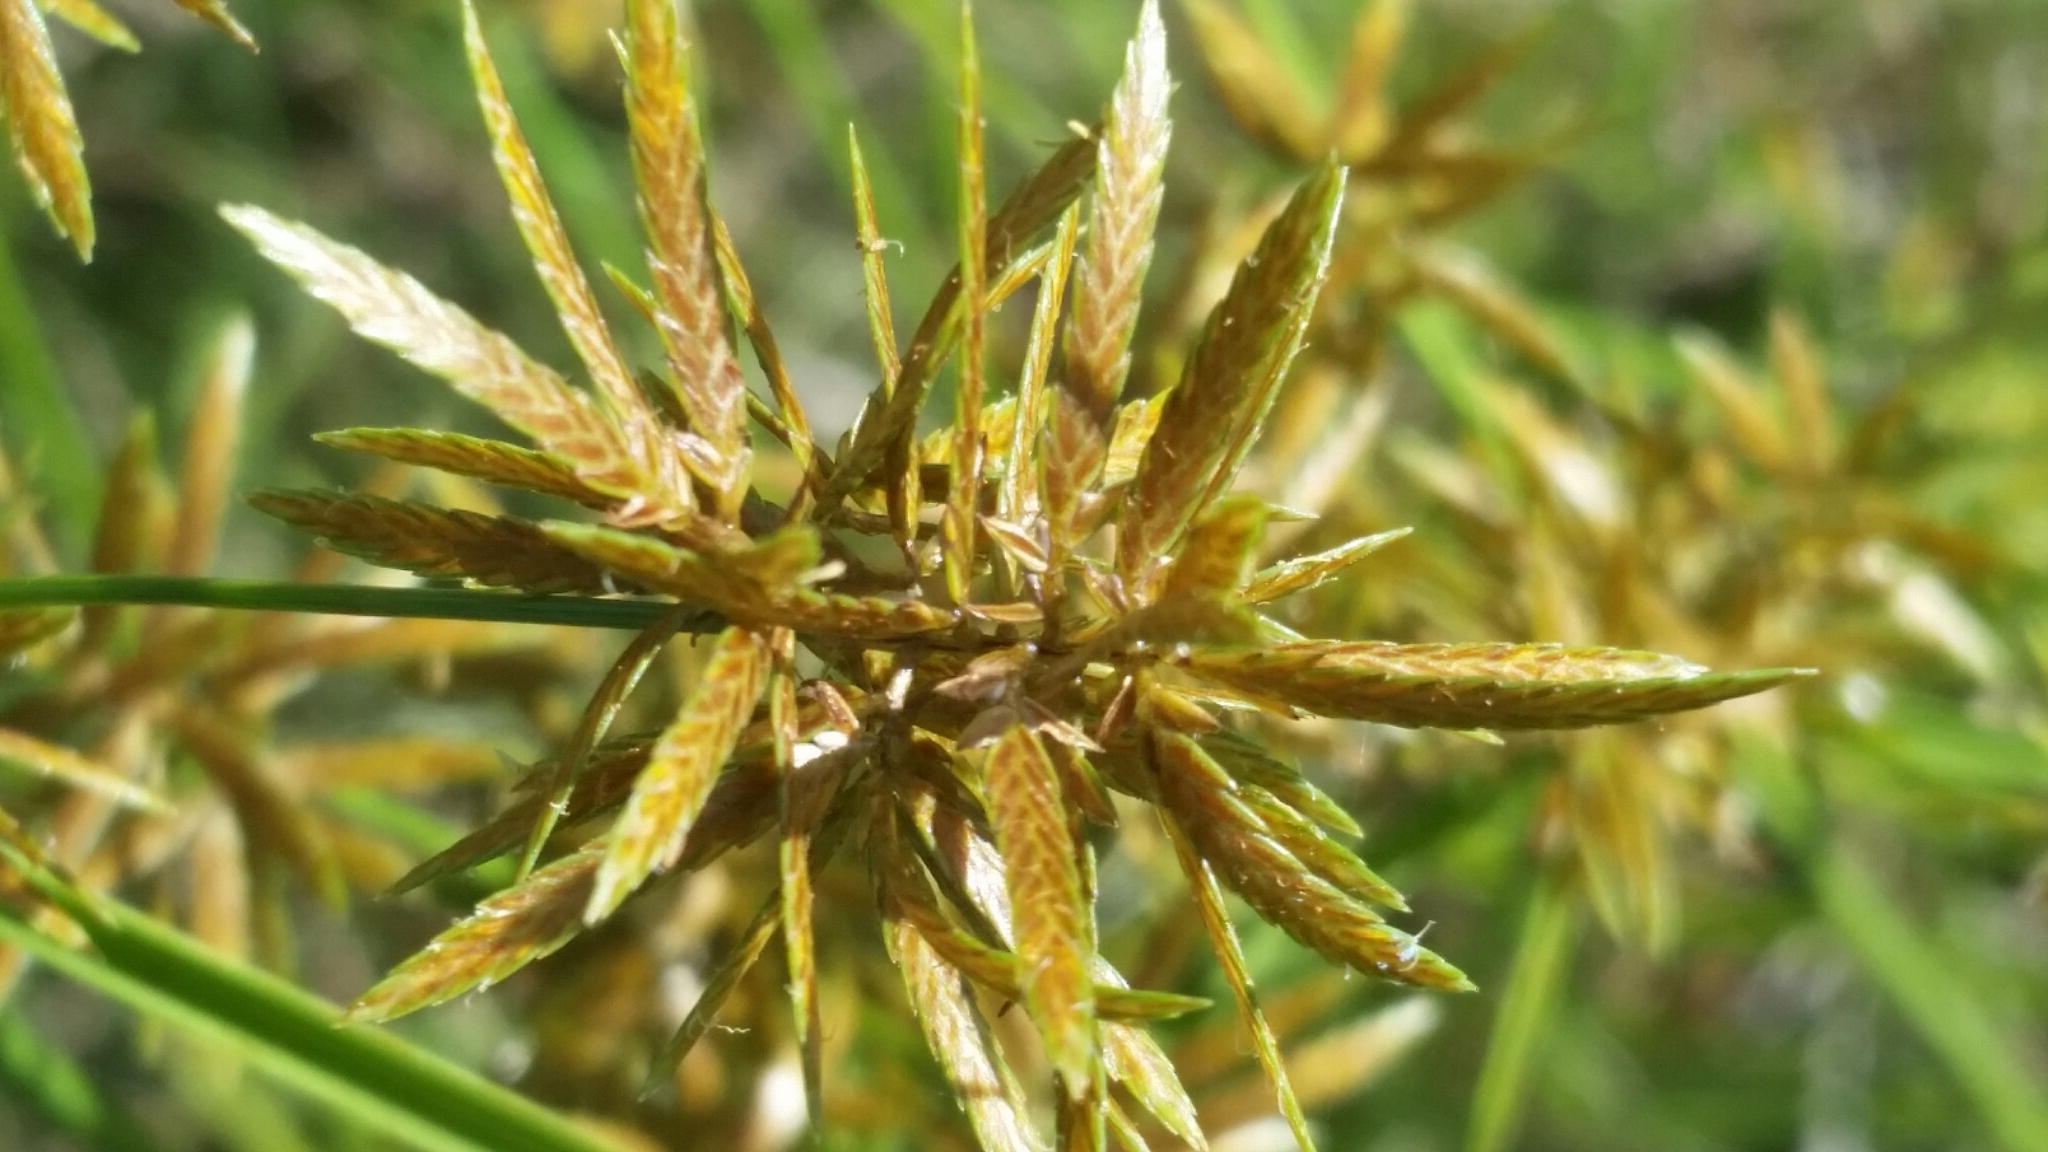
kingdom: Plantae
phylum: Tracheophyta
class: Liliopsida
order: Poales
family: Cyperaceae
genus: Cyperus
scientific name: Cyperus polystachyos
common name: Bunchy flat sedge
